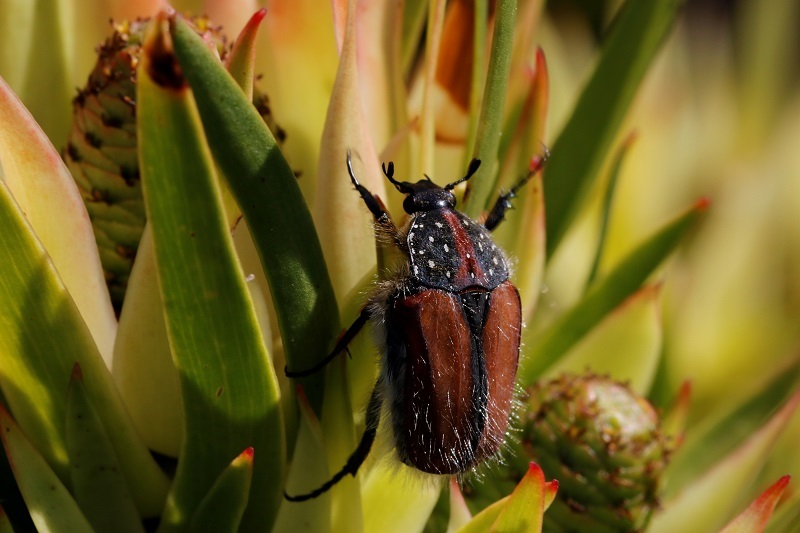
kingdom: Animalia
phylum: Arthropoda
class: Insecta
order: Coleoptera
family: Scarabaeidae
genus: Trichostetha
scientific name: Trichostetha capensis
